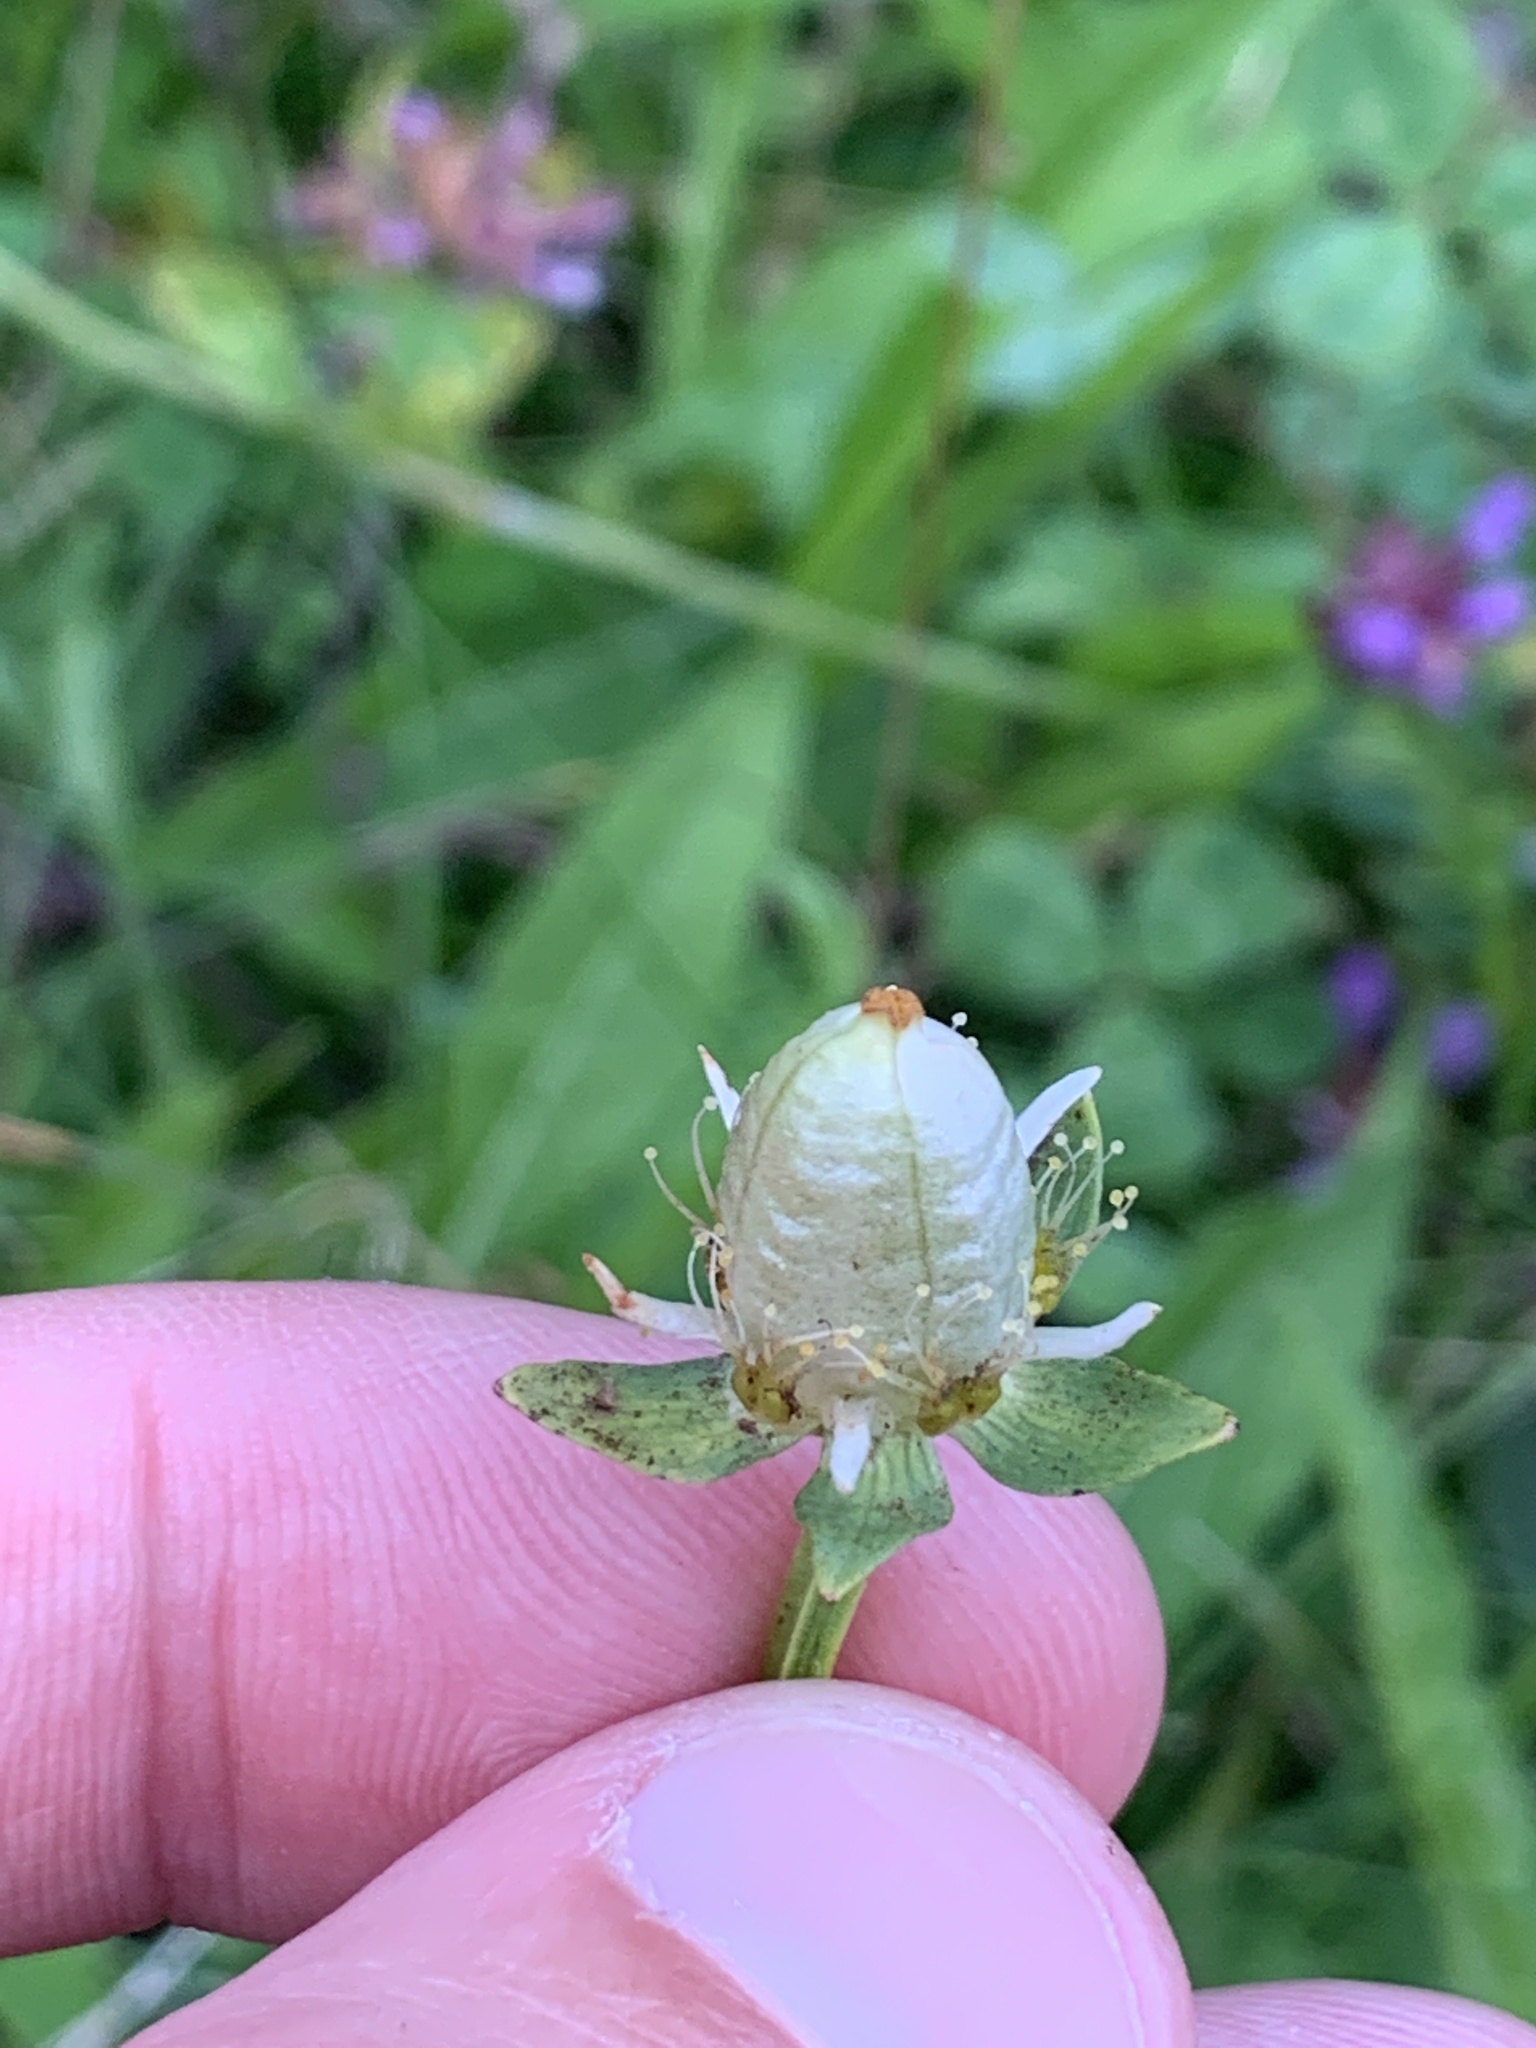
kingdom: Plantae
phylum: Tracheophyta
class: Magnoliopsida
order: Celastrales
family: Parnassiaceae
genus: Parnassia
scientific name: Parnassia palustris
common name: Grass-of-parnassus
